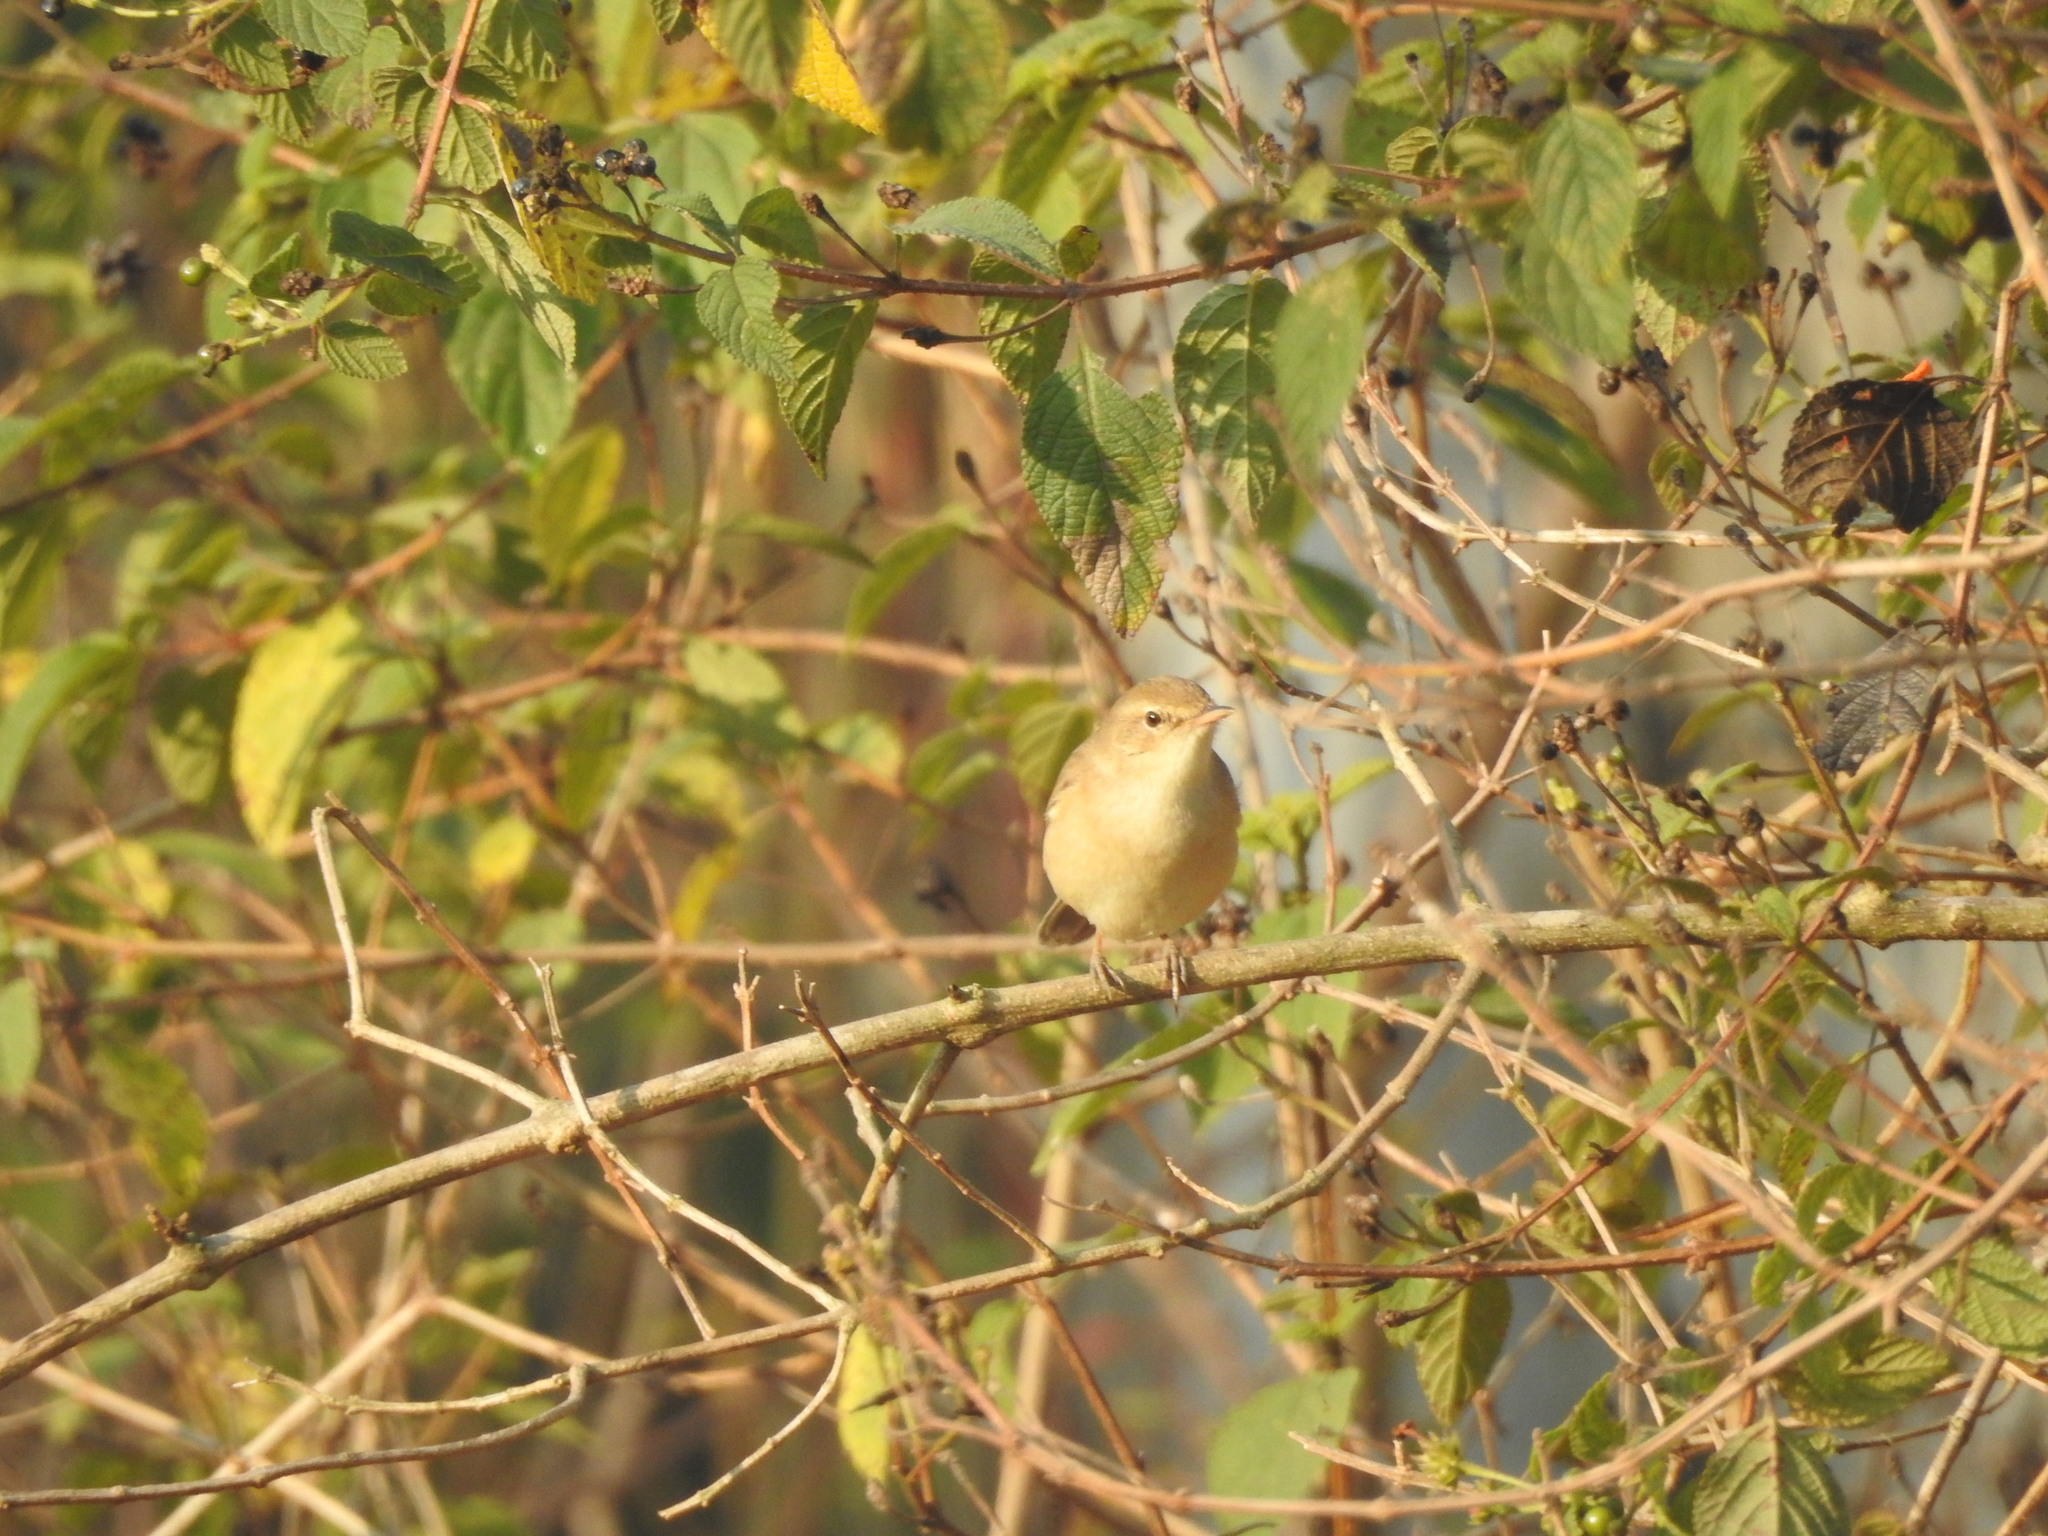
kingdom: Animalia
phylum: Chordata
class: Aves
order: Passeriformes
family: Acrocephalidae
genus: Iduna
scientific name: Iduna caligata
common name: Booted warbler
